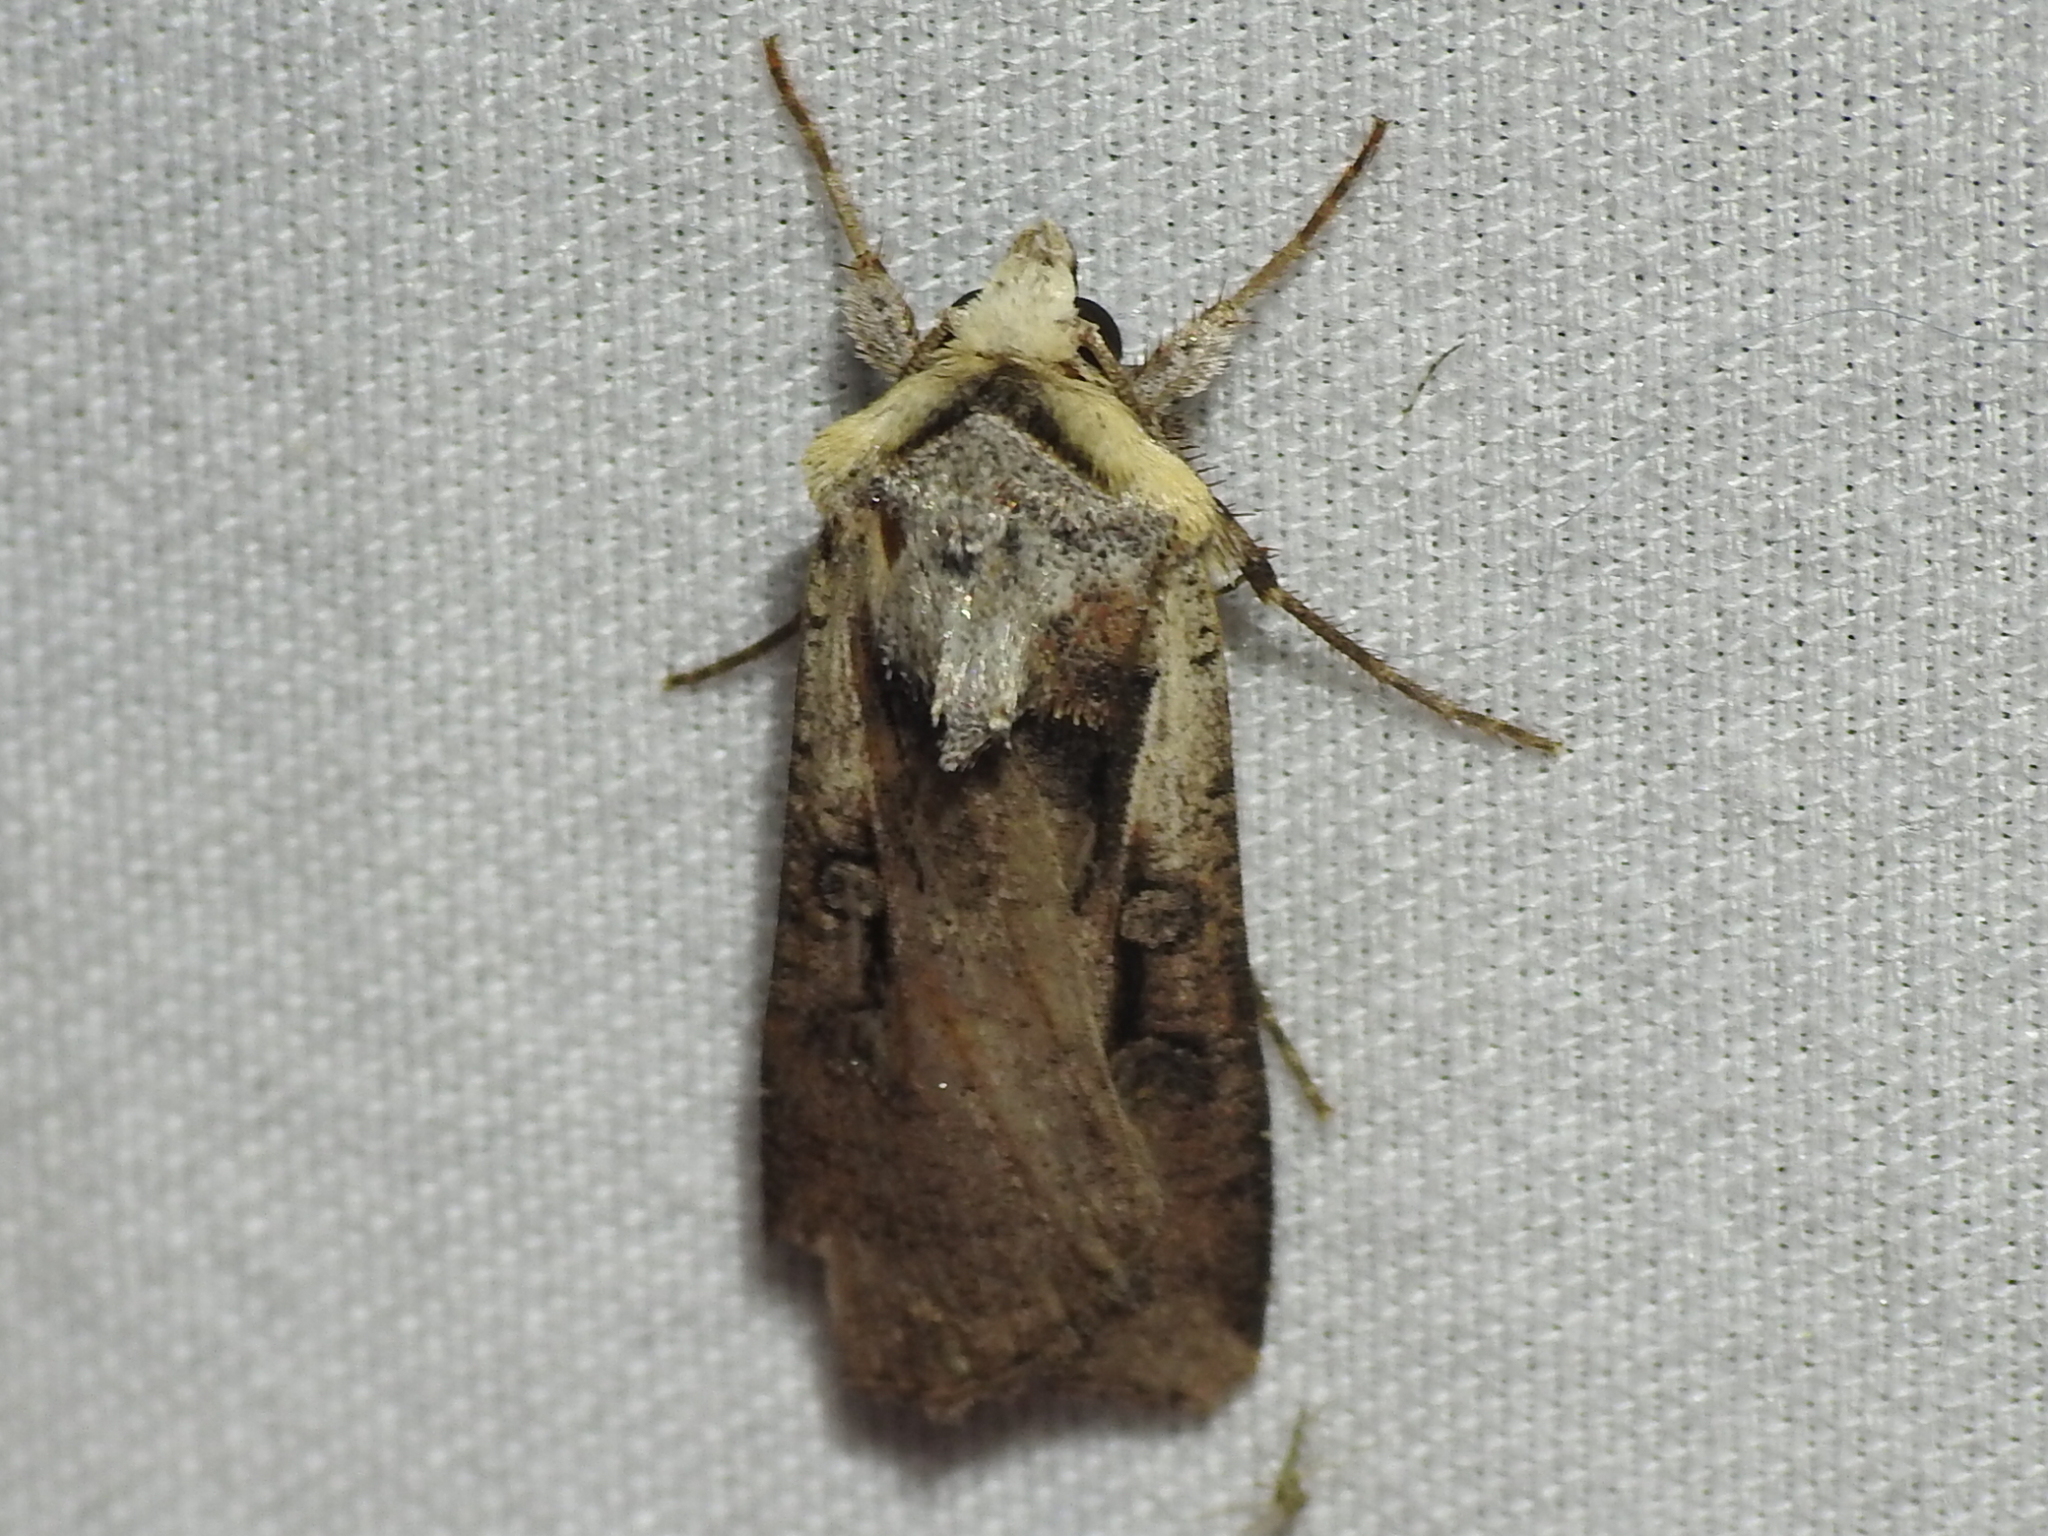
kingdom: Animalia
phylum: Arthropoda
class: Insecta
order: Lepidoptera
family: Noctuidae
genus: Hemieuxoa
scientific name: Hemieuxoa rudens
